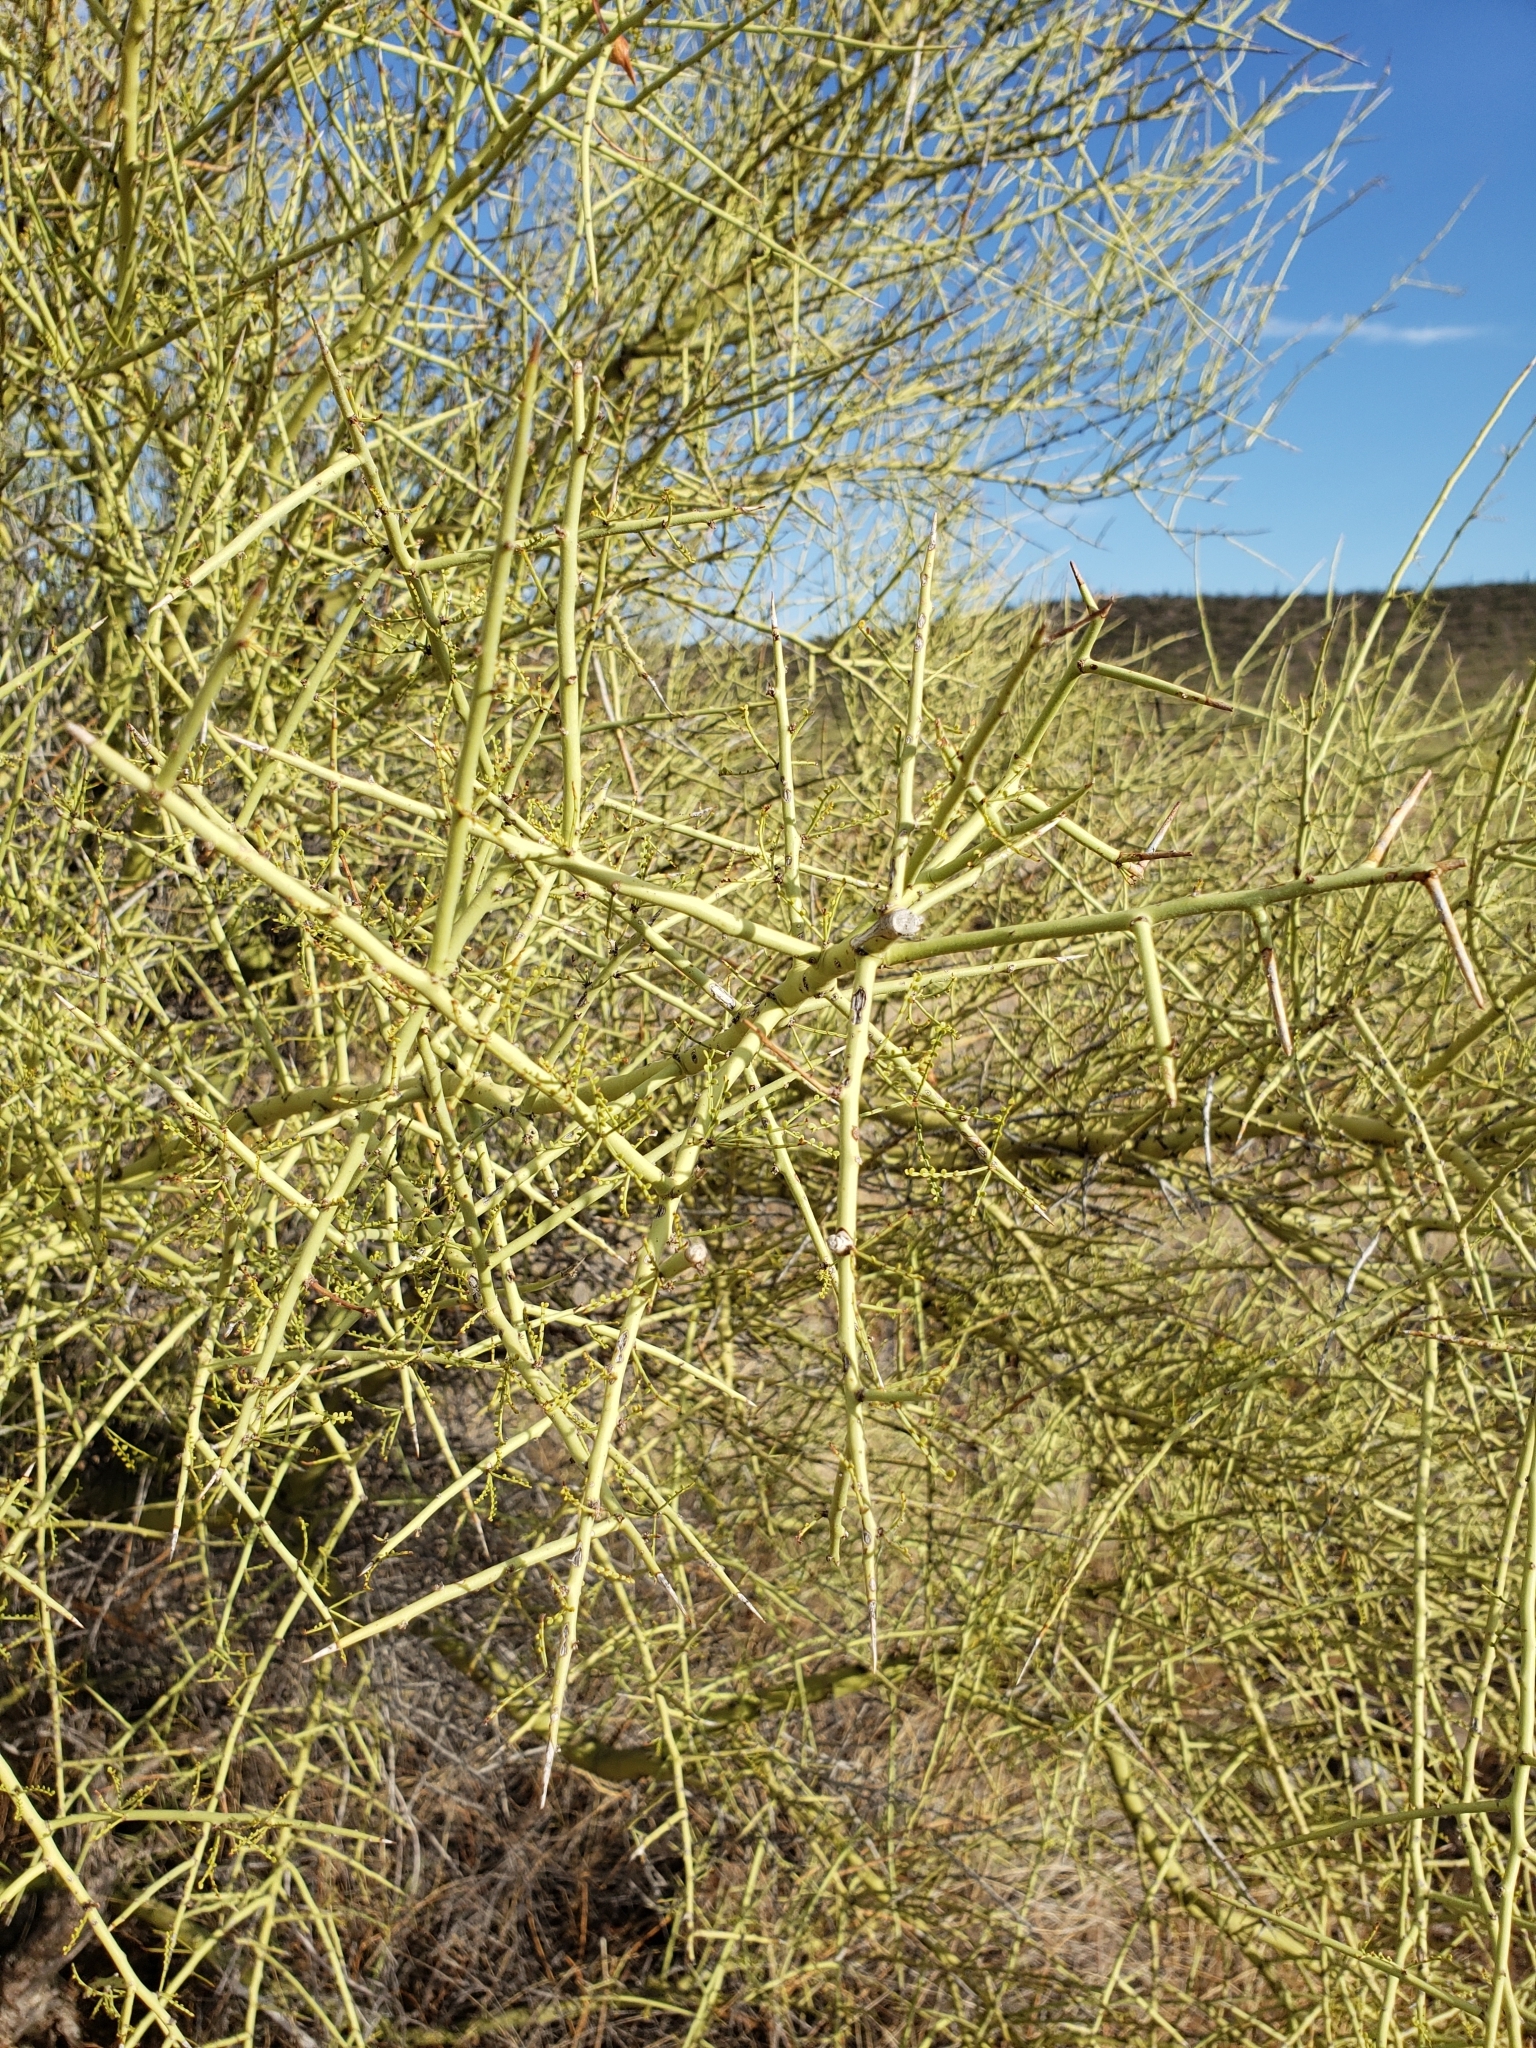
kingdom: Plantae
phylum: Tracheophyta
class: Magnoliopsida
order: Fabales
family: Fabaceae
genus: Parkinsonia
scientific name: Parkinsonia microphylla
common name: Yellow paloverde
